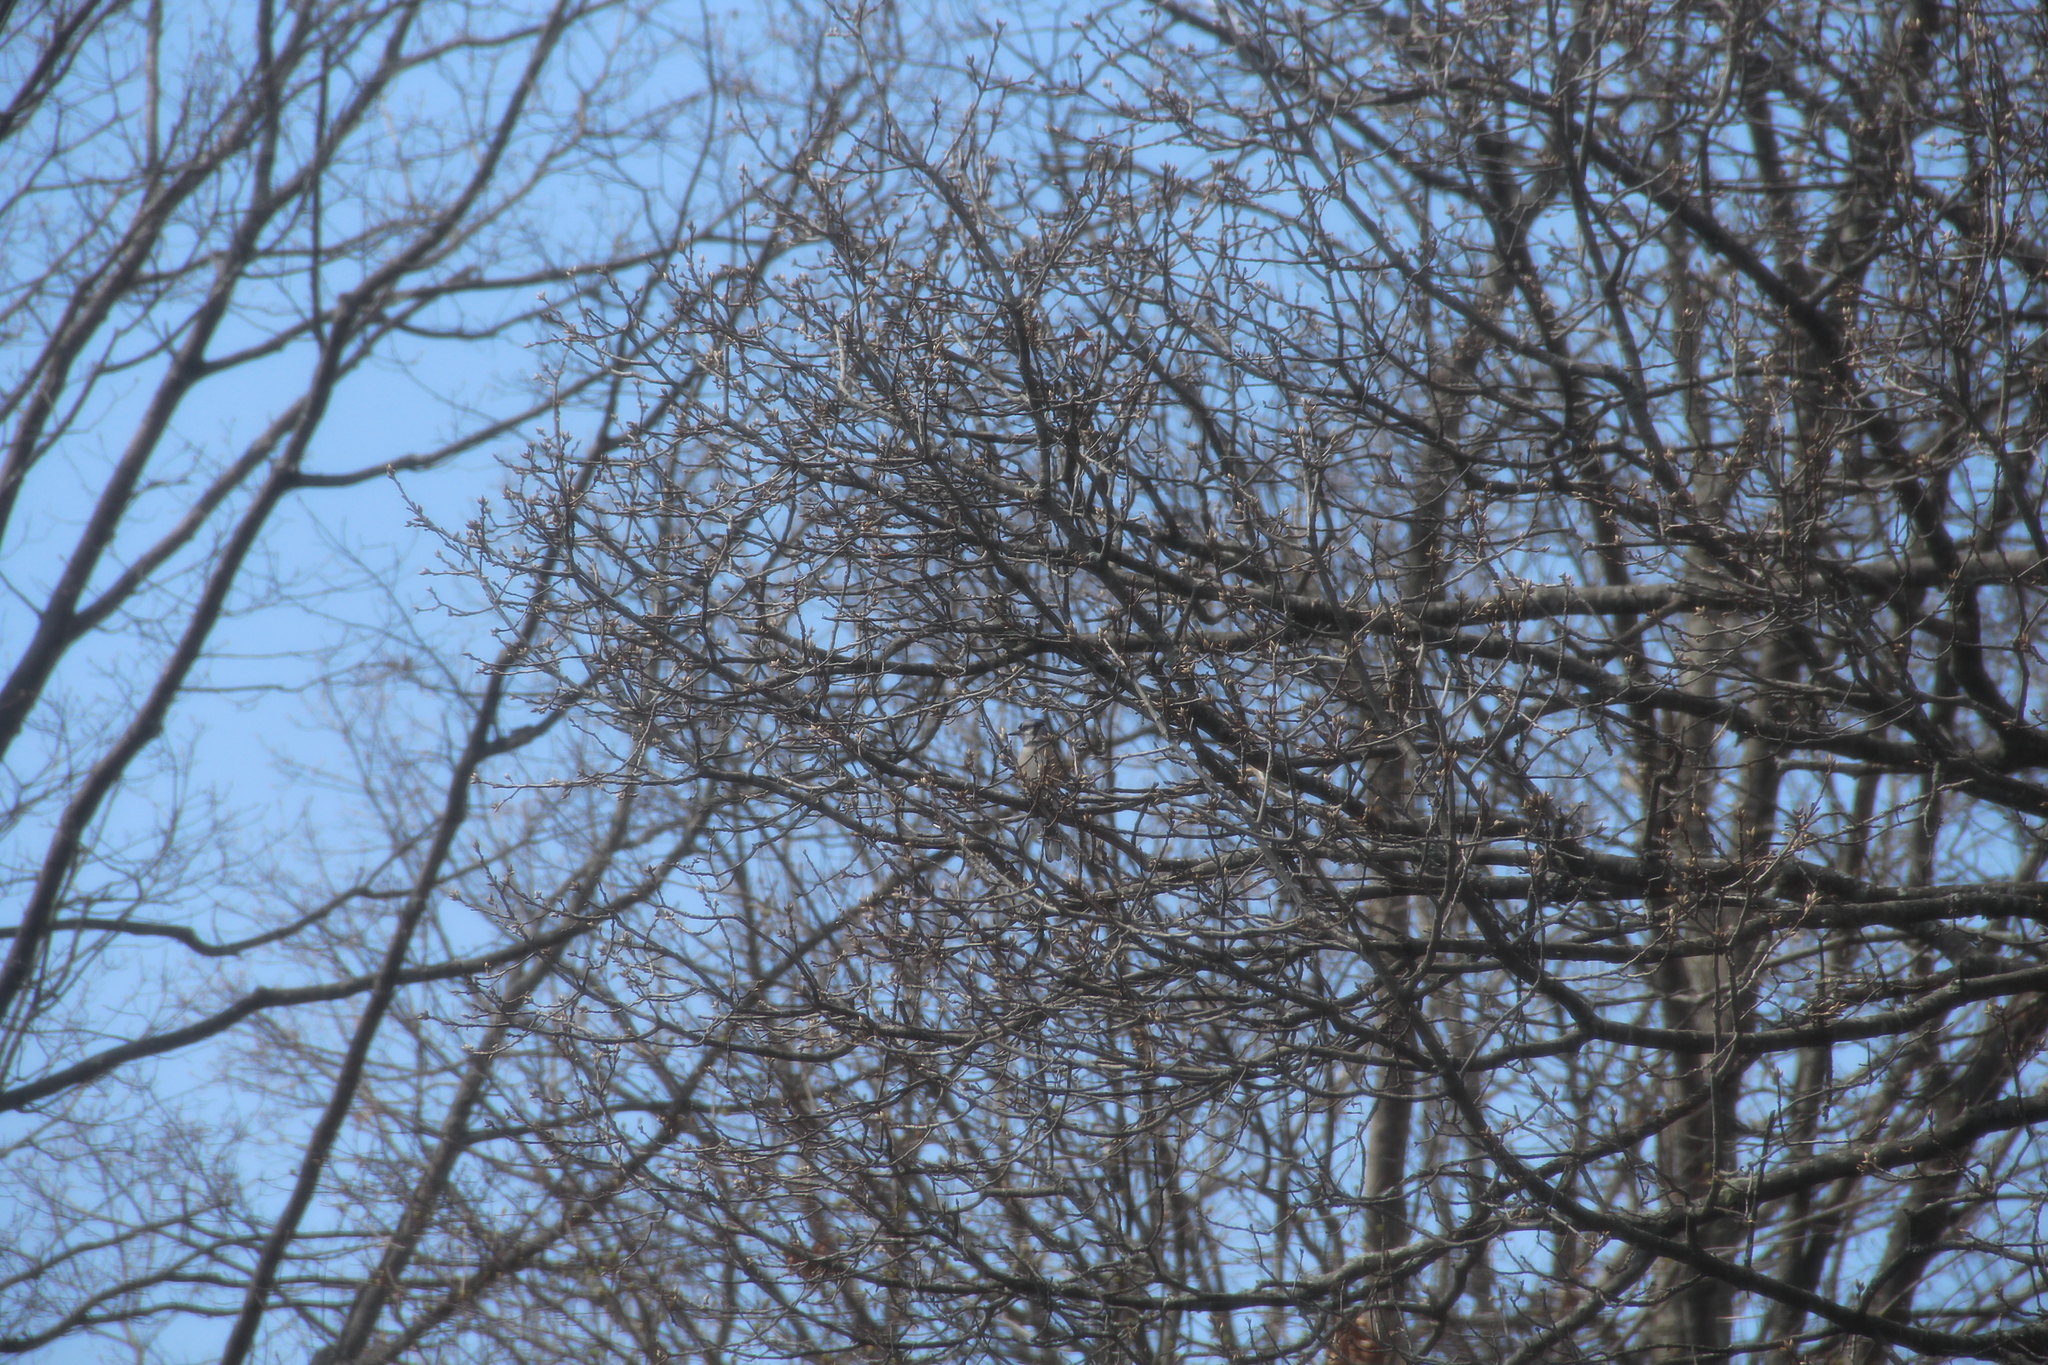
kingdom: Animalia
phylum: Chordata
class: Aves
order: Passeriformes
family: Corvidae
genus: Cyanocitta
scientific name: Cyanocitta cristata
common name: Blue jay
